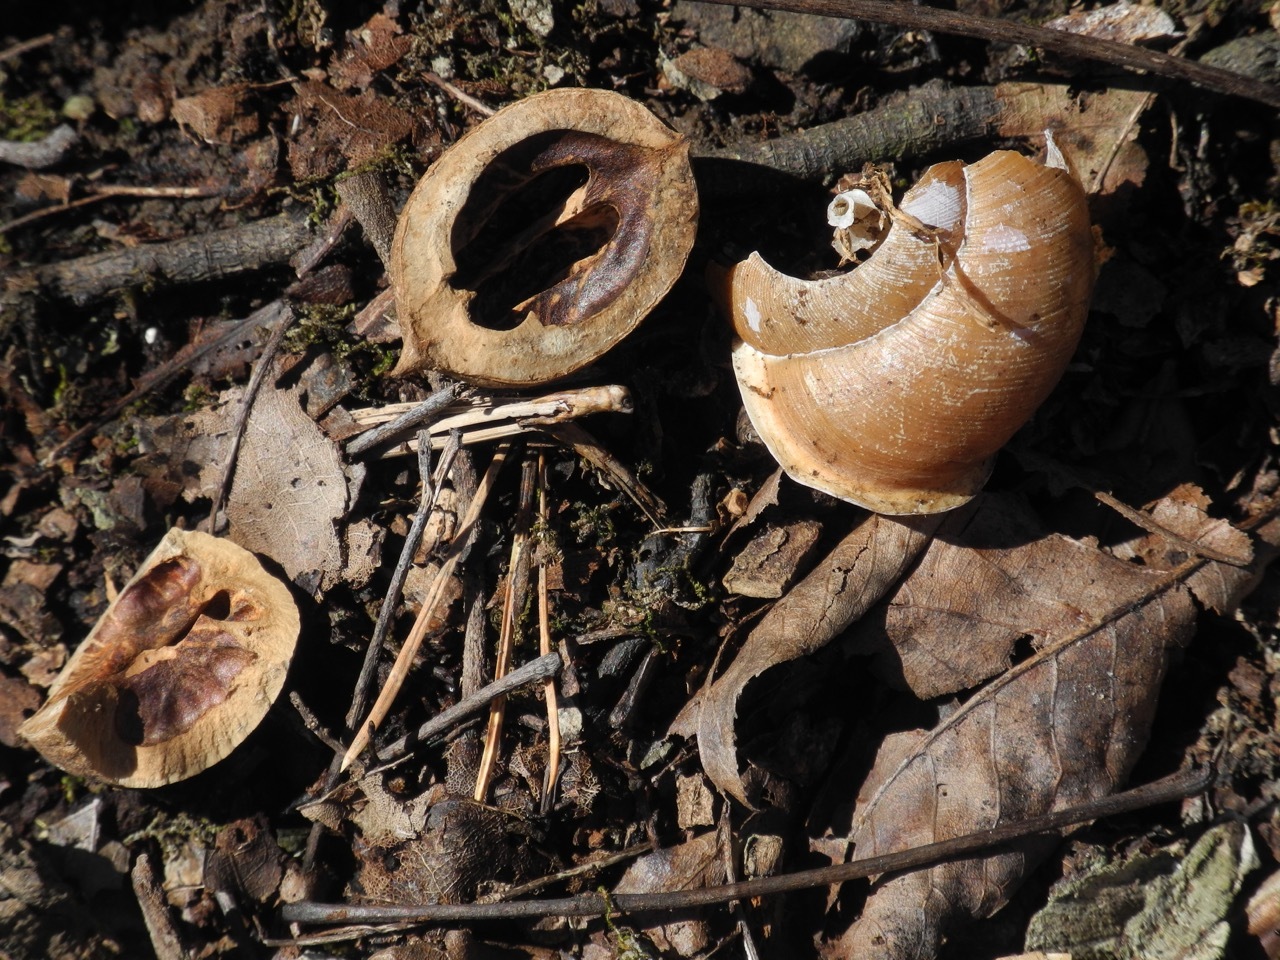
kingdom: Animalia
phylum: Mollusca
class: Gastropoda
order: Stylommatophora
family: Polygyridae
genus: Neohelix
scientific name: Neohelix major
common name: Southeastern whitelip
